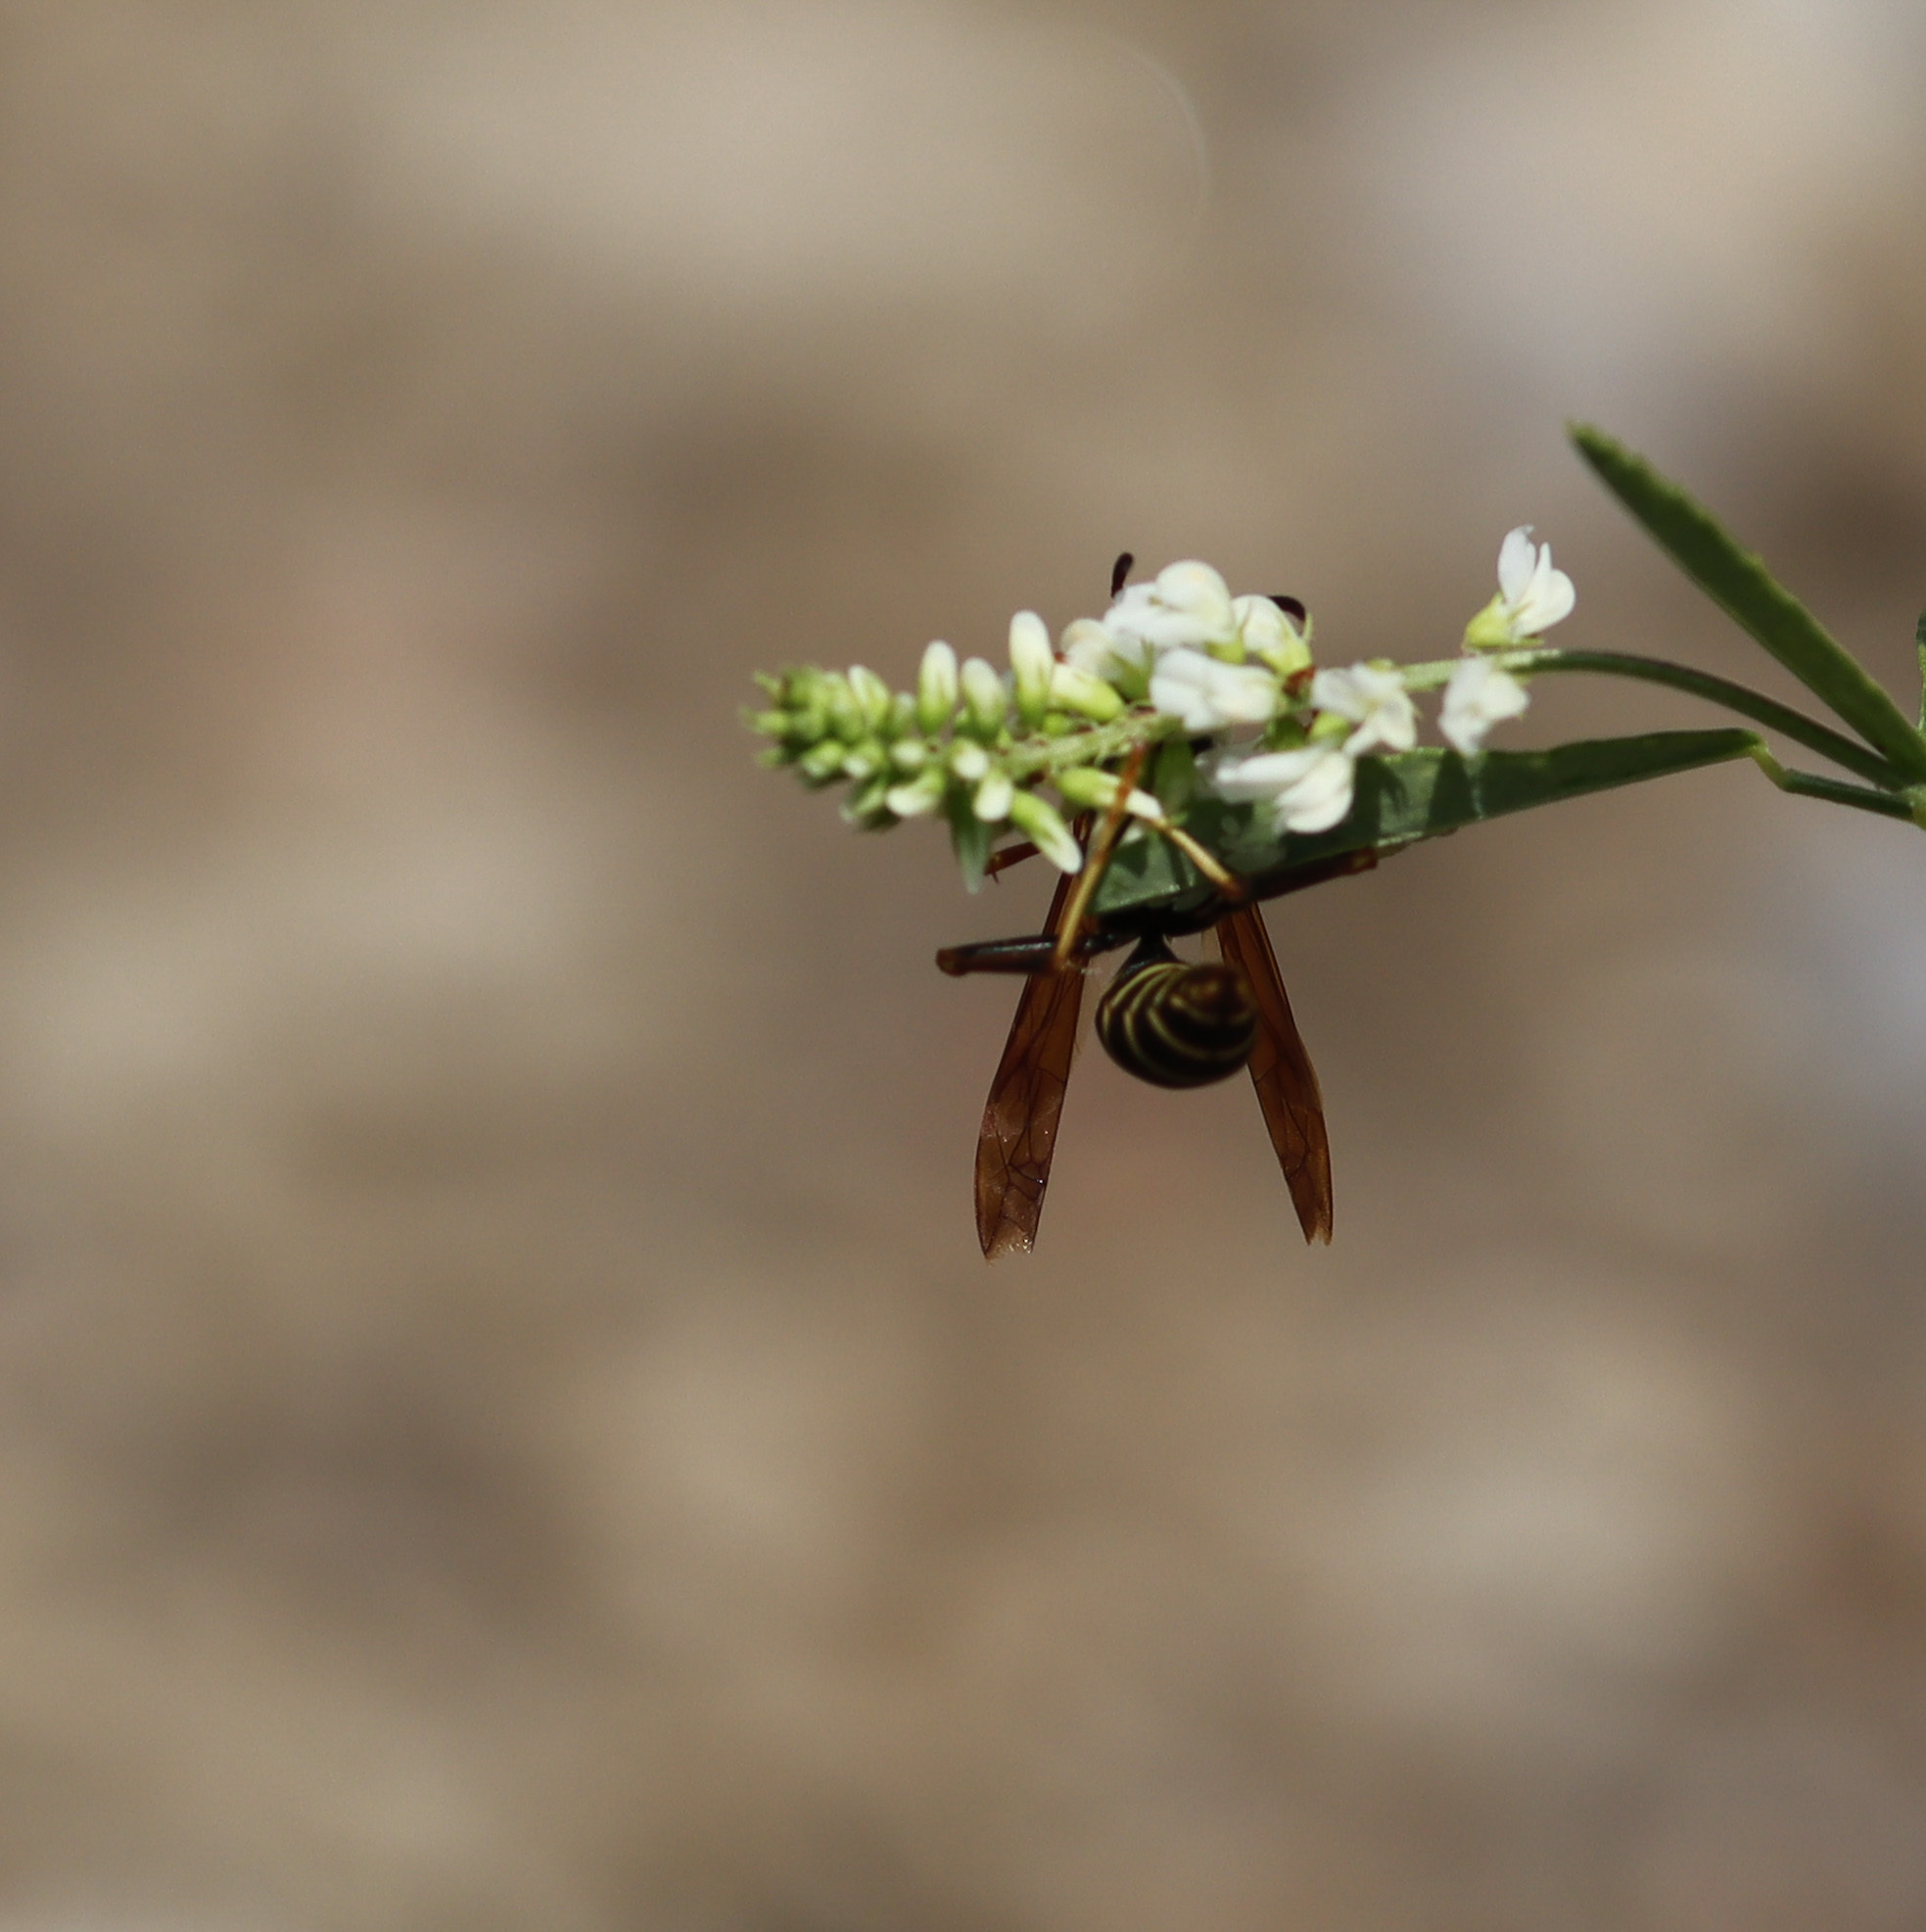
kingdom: Animalia
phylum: Arthropoda
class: Insecta
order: Hymenoptera
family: Eumenidae
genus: Polistes
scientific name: Polistes fuscatus
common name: Dark paper wasp
